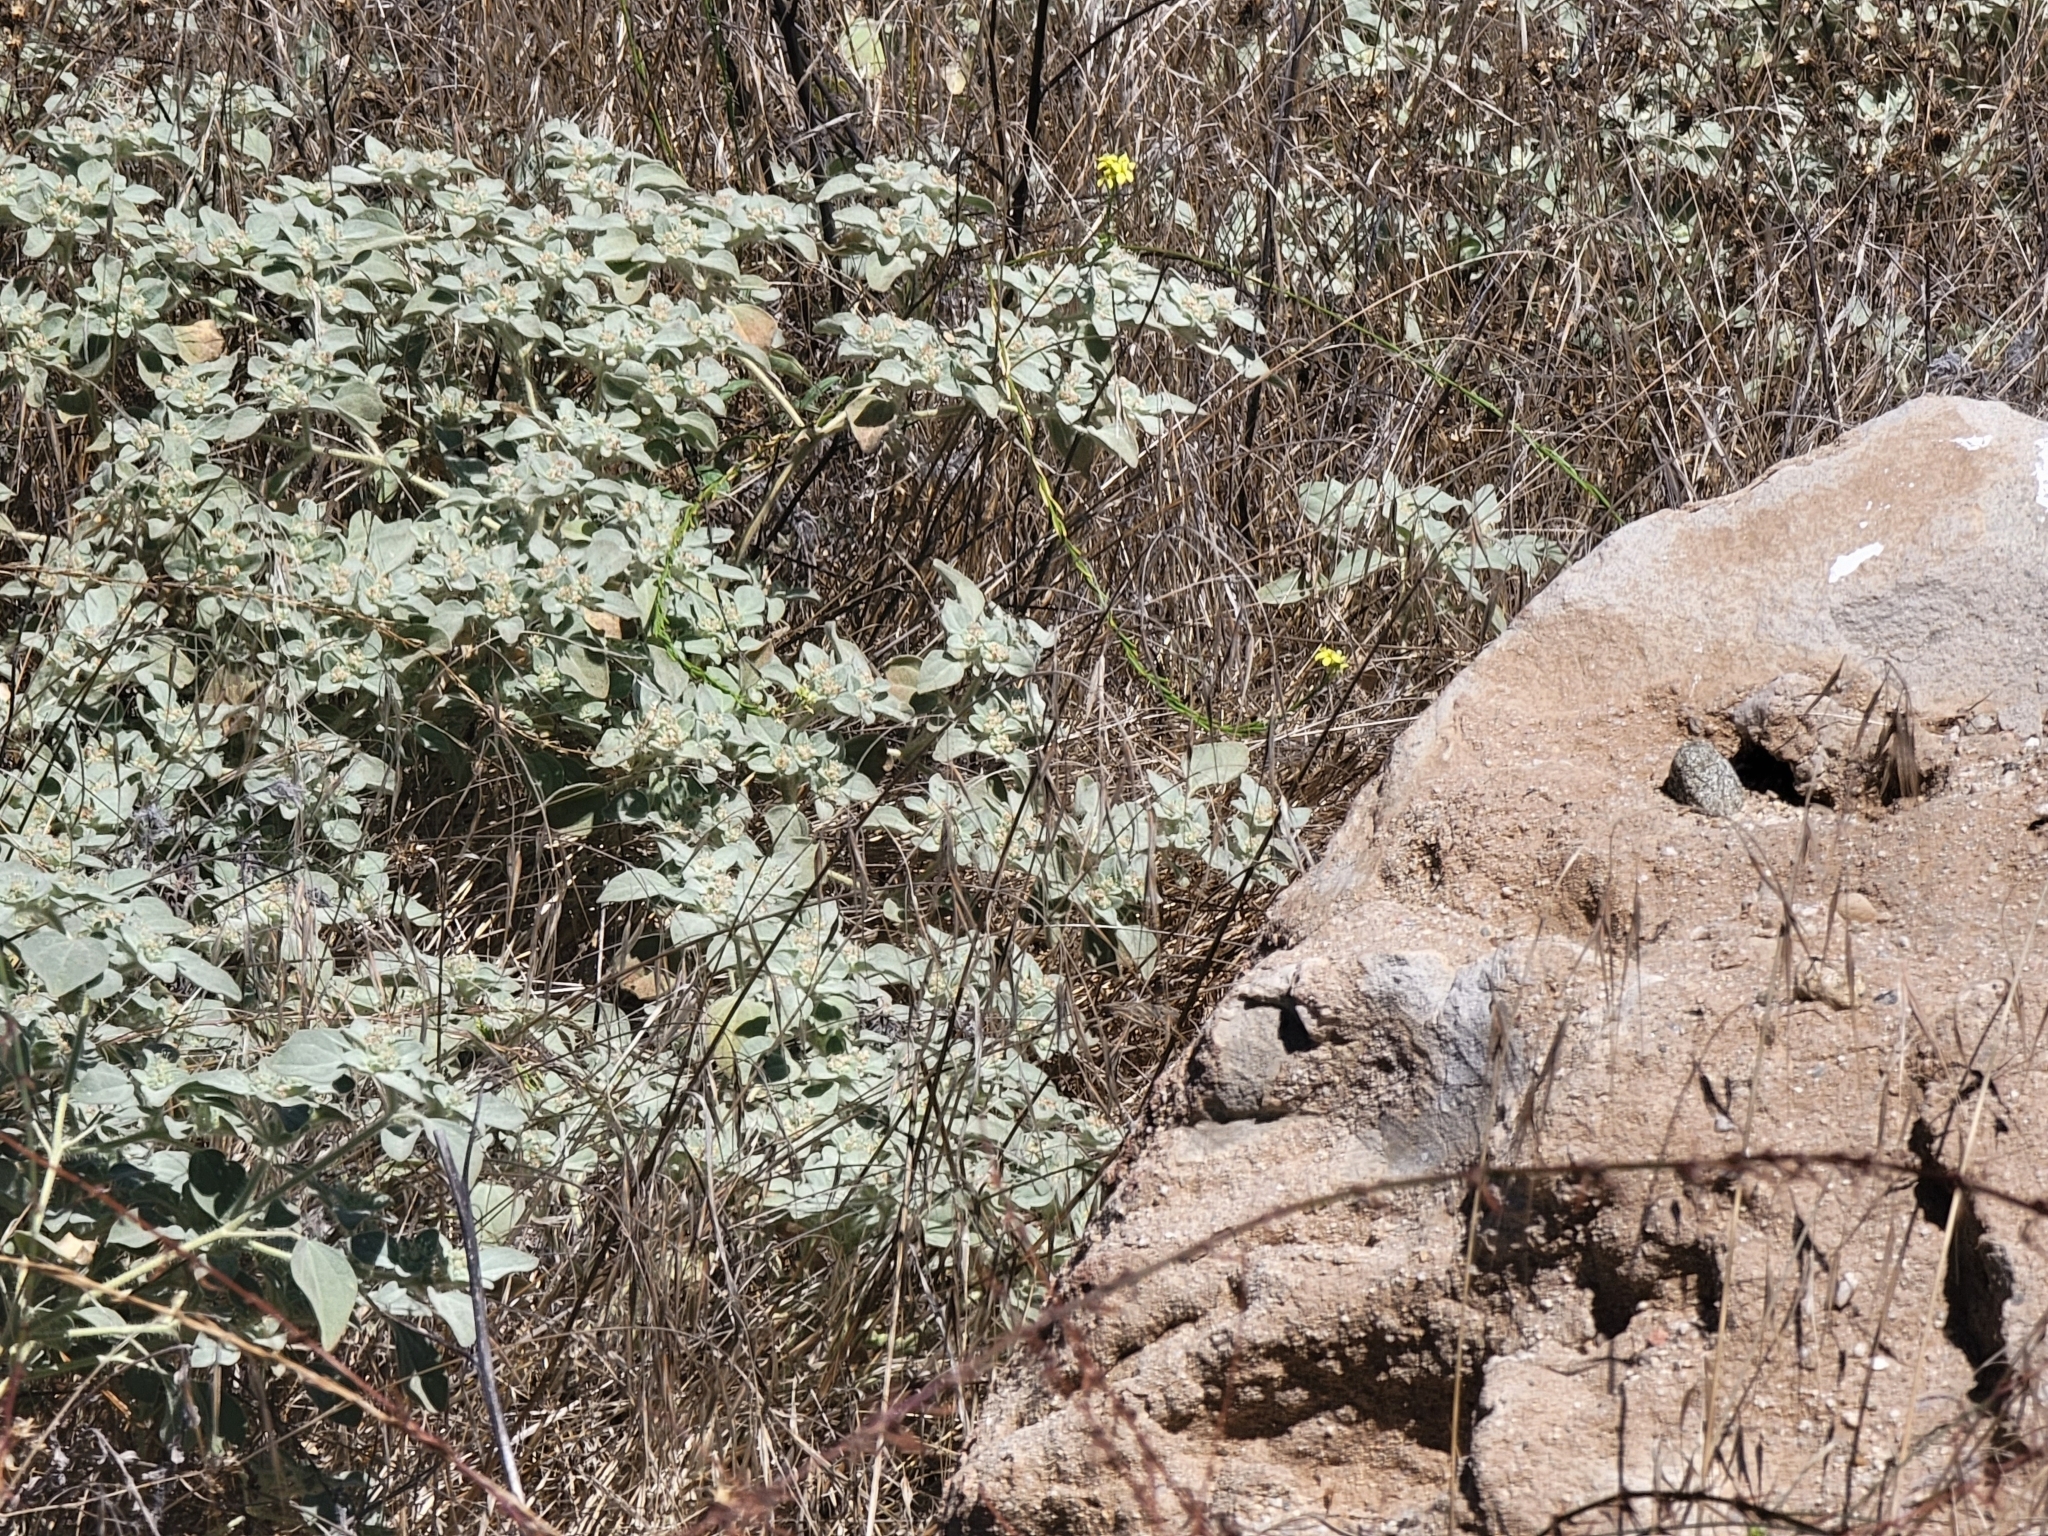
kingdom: Plantae
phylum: Tracheophyta
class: Magnoliopsida
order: Malpighiales
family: Euphorbiaceae
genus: Croton
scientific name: Croton setiger
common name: Dove weed
